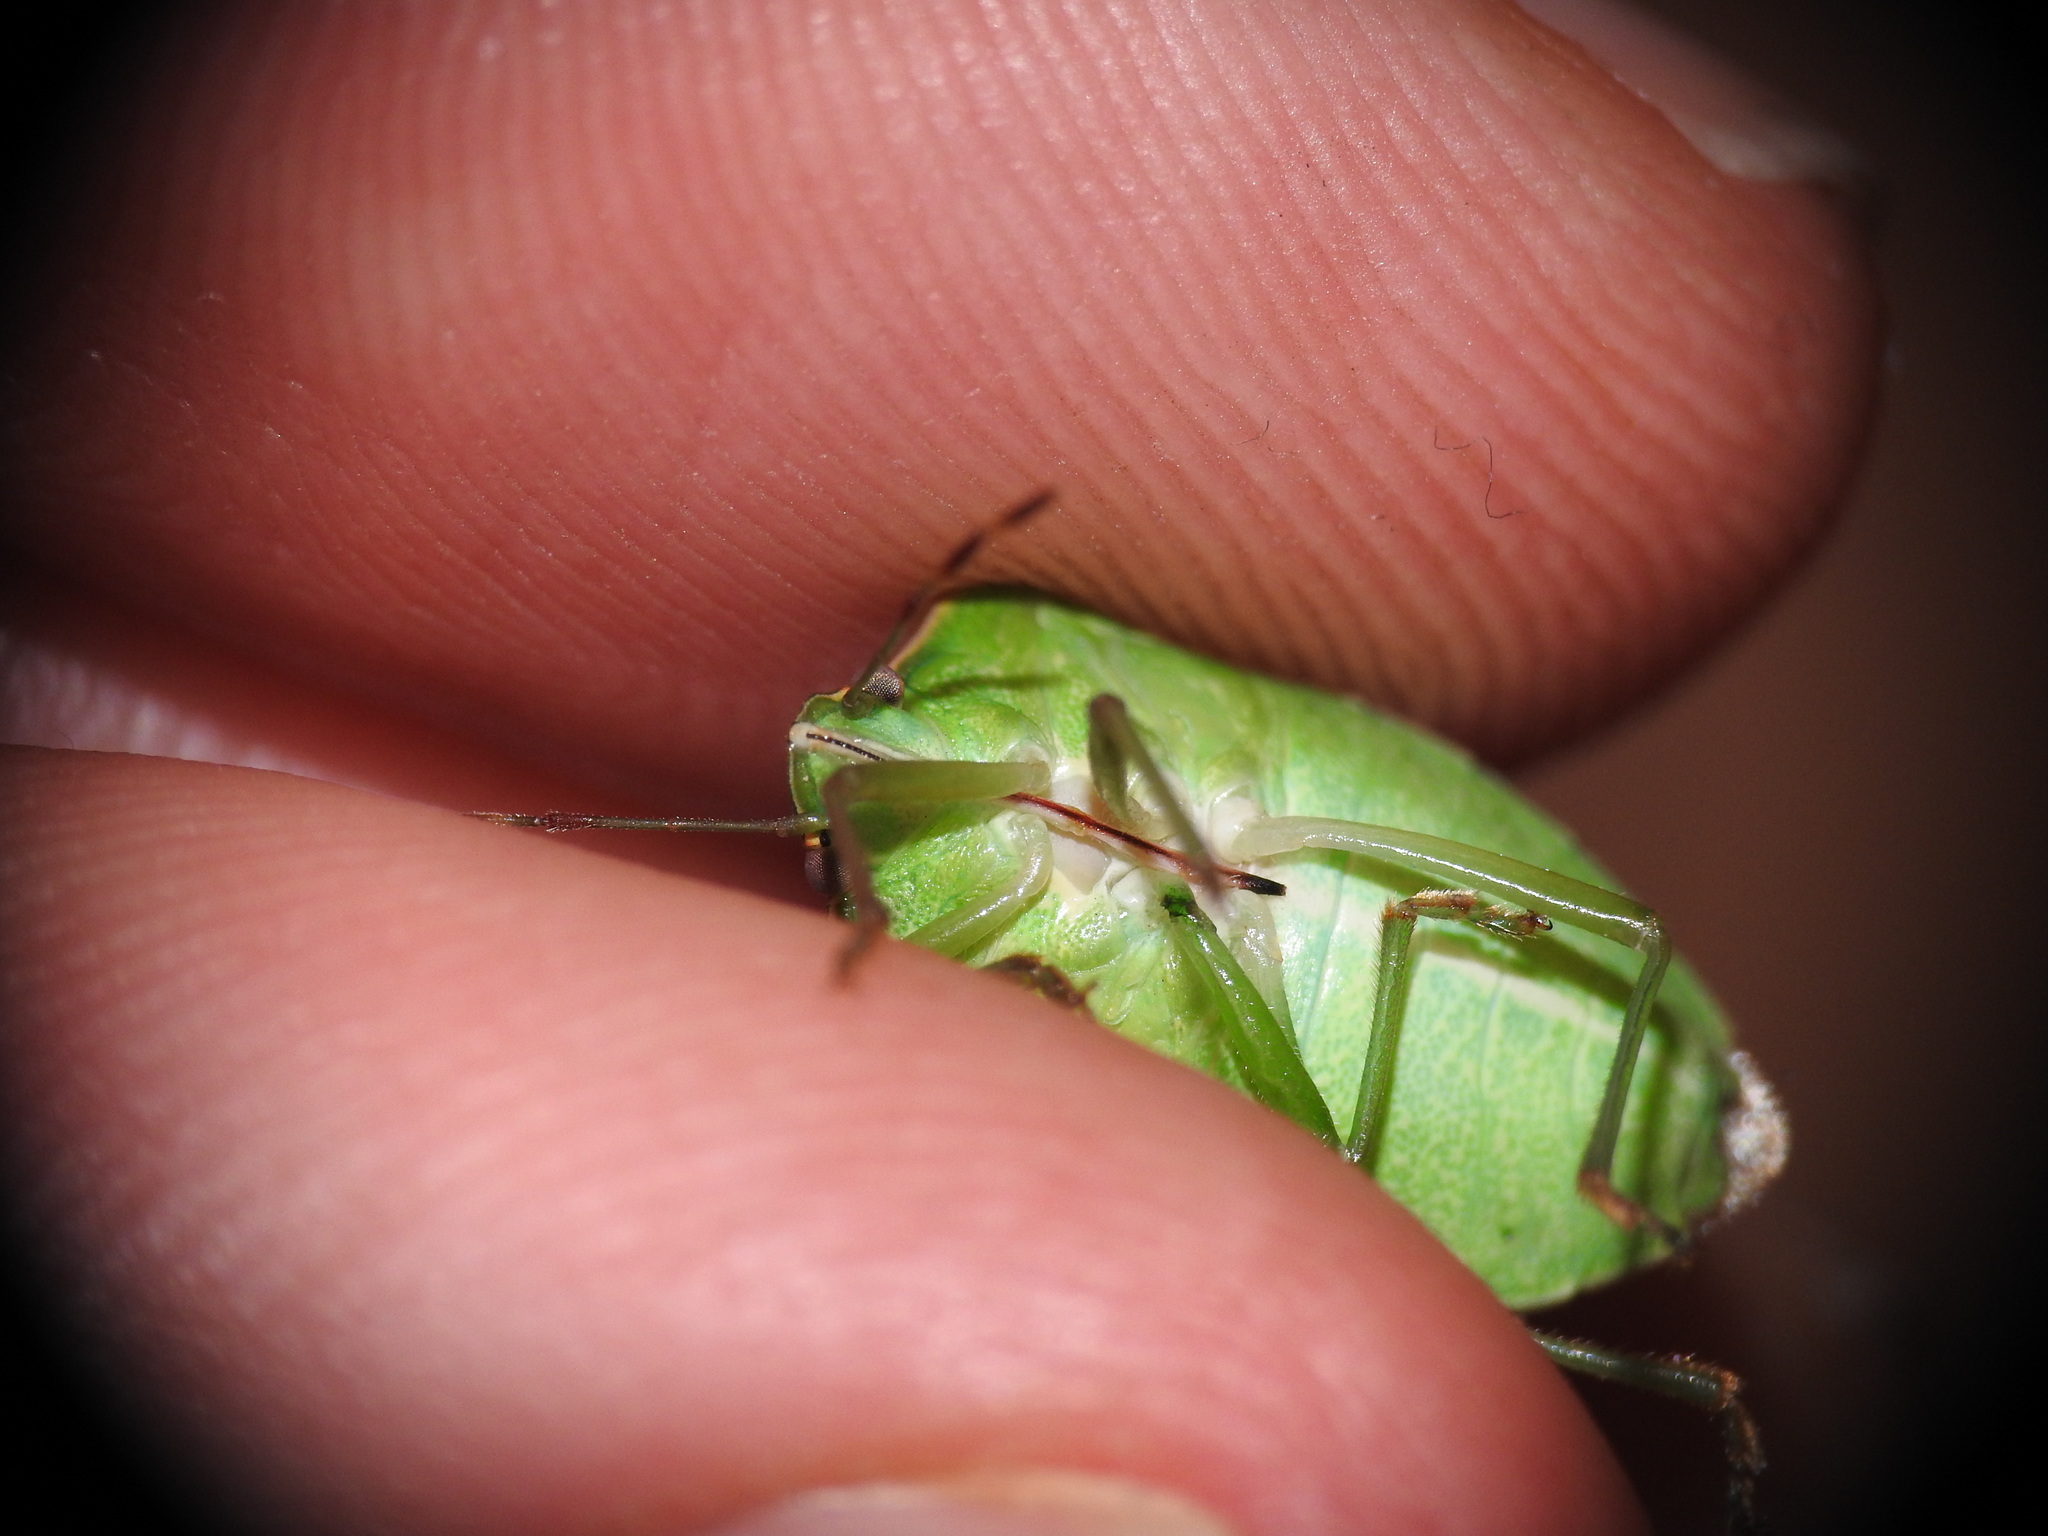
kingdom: Animalia
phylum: Arthropoda
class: Insecta
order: Hemiptera
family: Pentatomidae
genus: Nezara
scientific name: Nezara viridula
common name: Southern green stink bug
